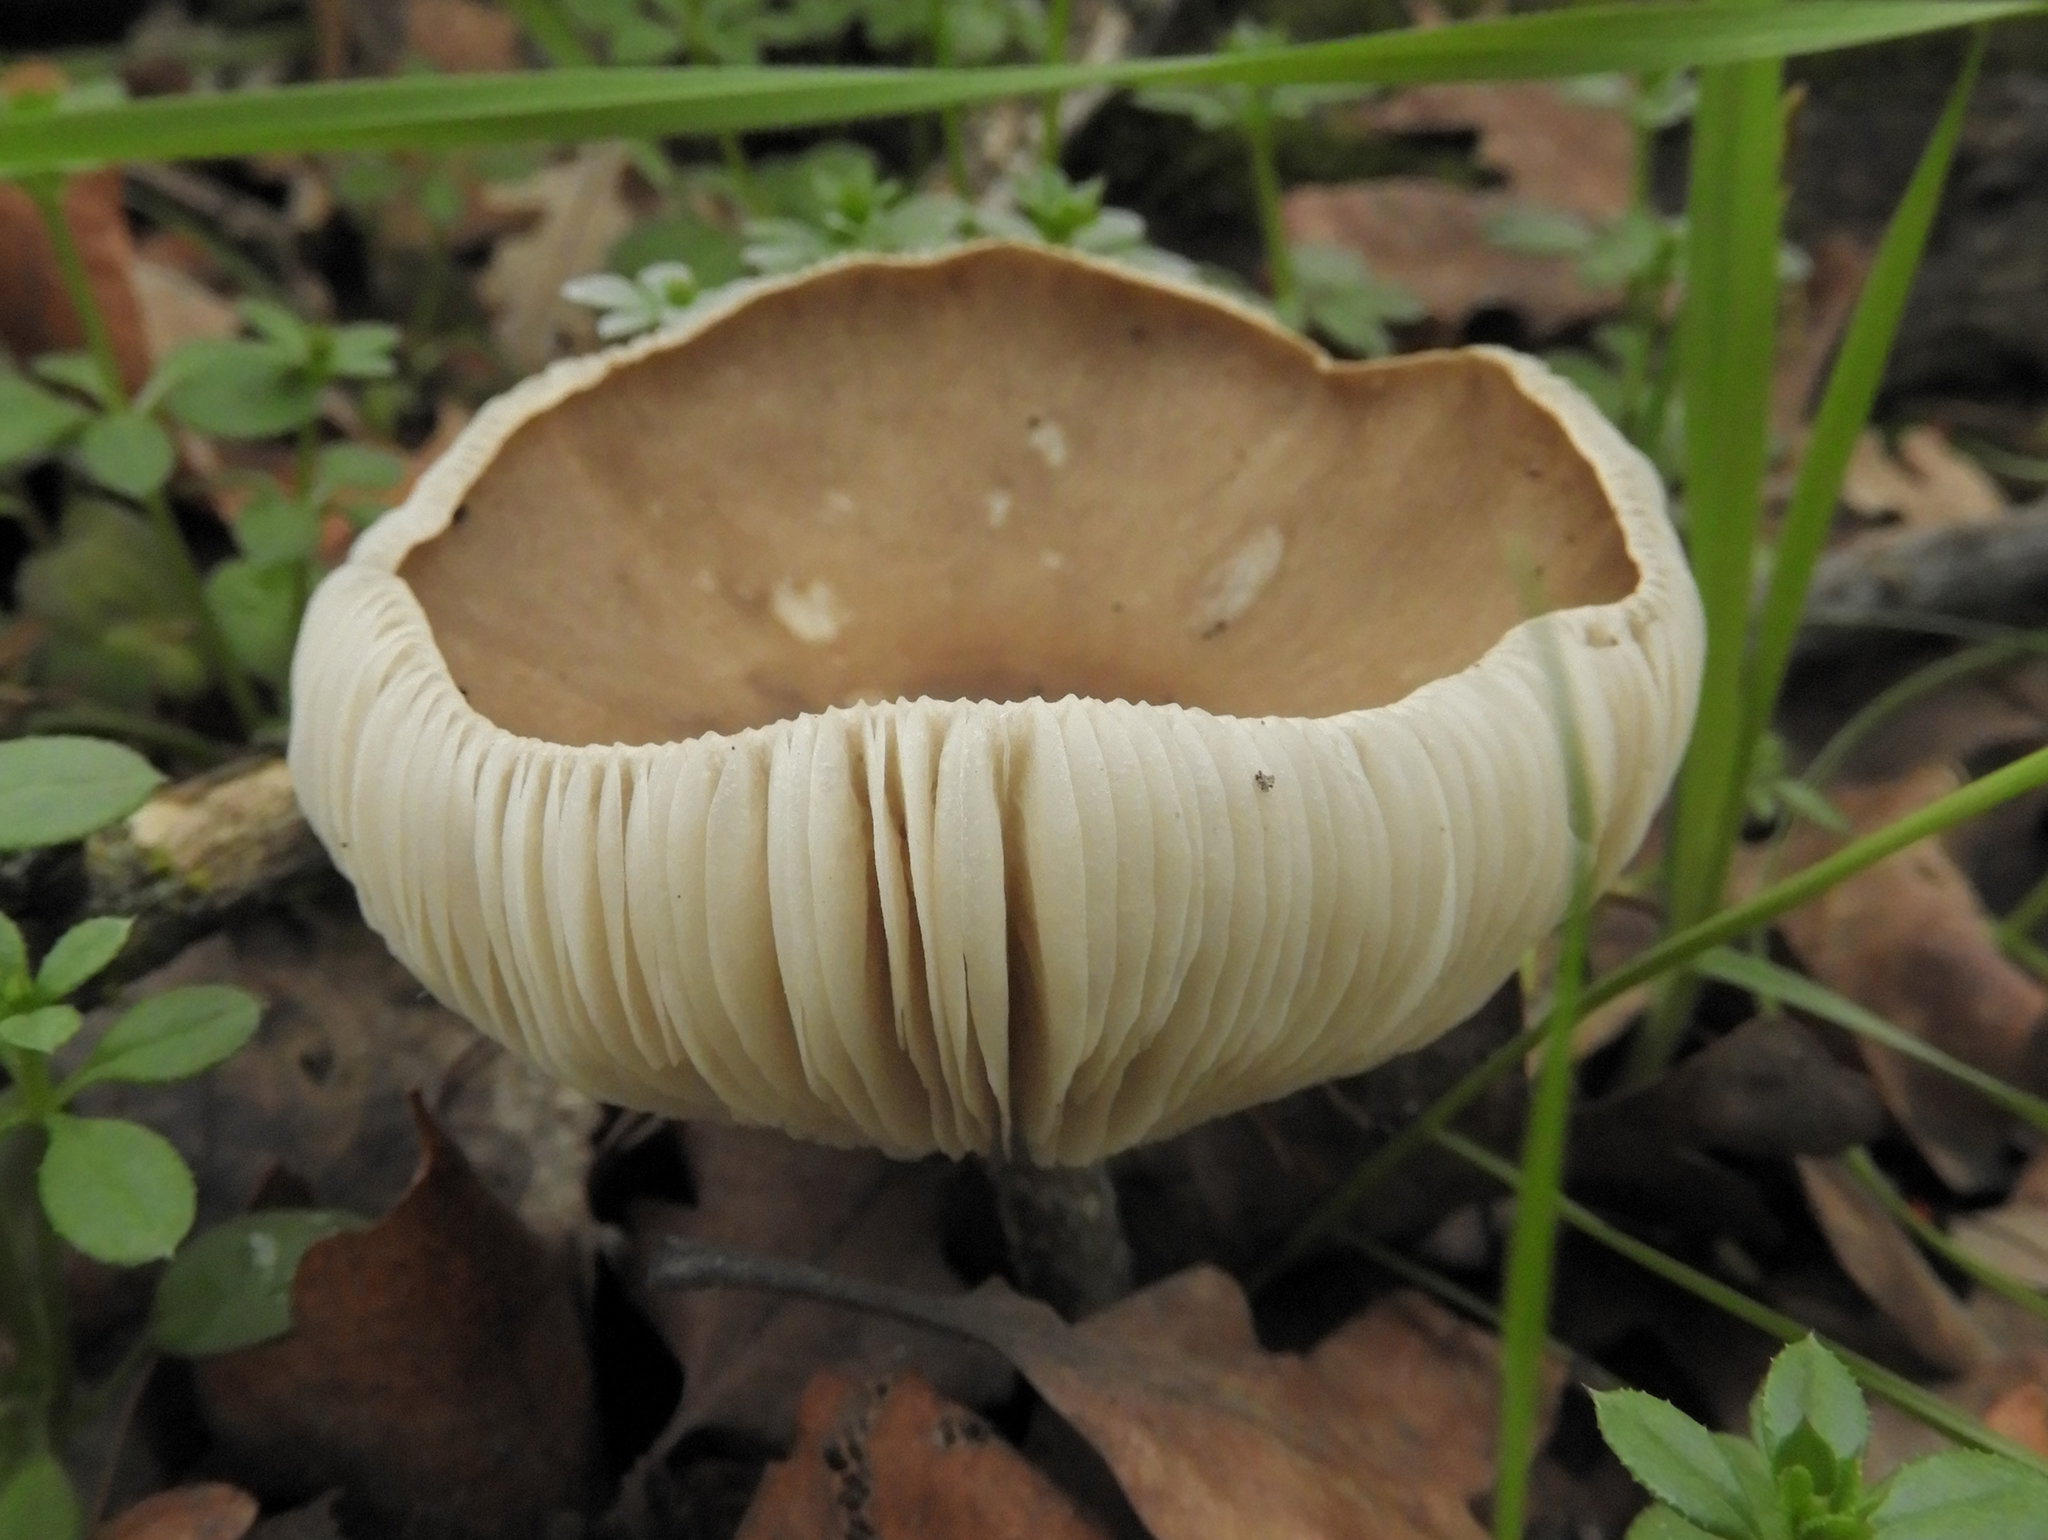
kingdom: Fungi
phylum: Basidiomycota
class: Agaricomycetes
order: Agaricales
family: Tricholomataceae
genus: Melanoleuca
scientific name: Melanoleuca melaleuca
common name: Bald cavalier
